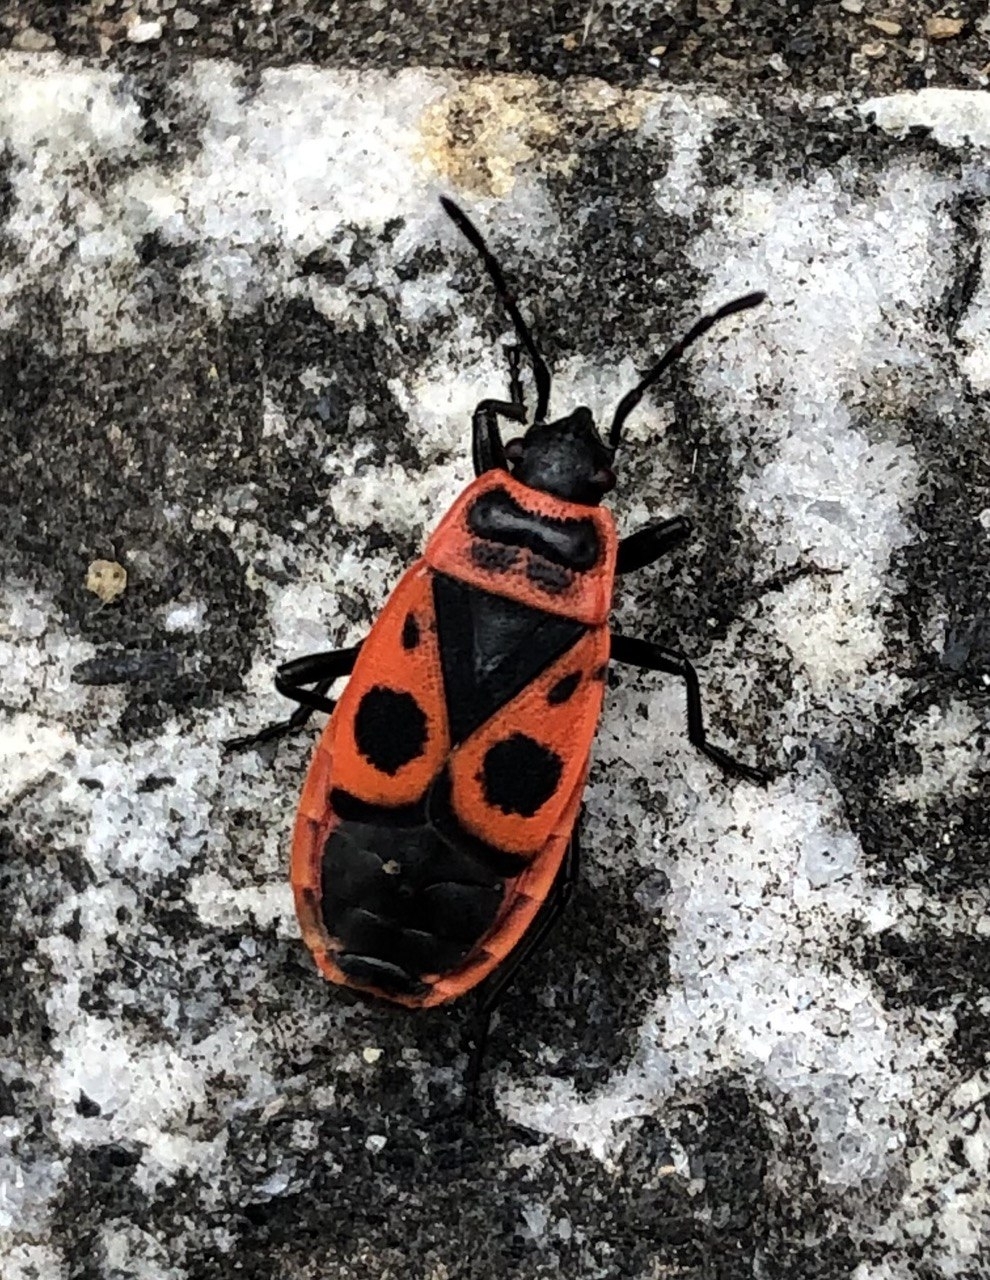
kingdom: Animalia
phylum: Arthropoda
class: Insecta
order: Hemiptera
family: Pyrrhocoridae
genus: Pyrrhocoris
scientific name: Pyrrhocoris apterus
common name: Firebug
